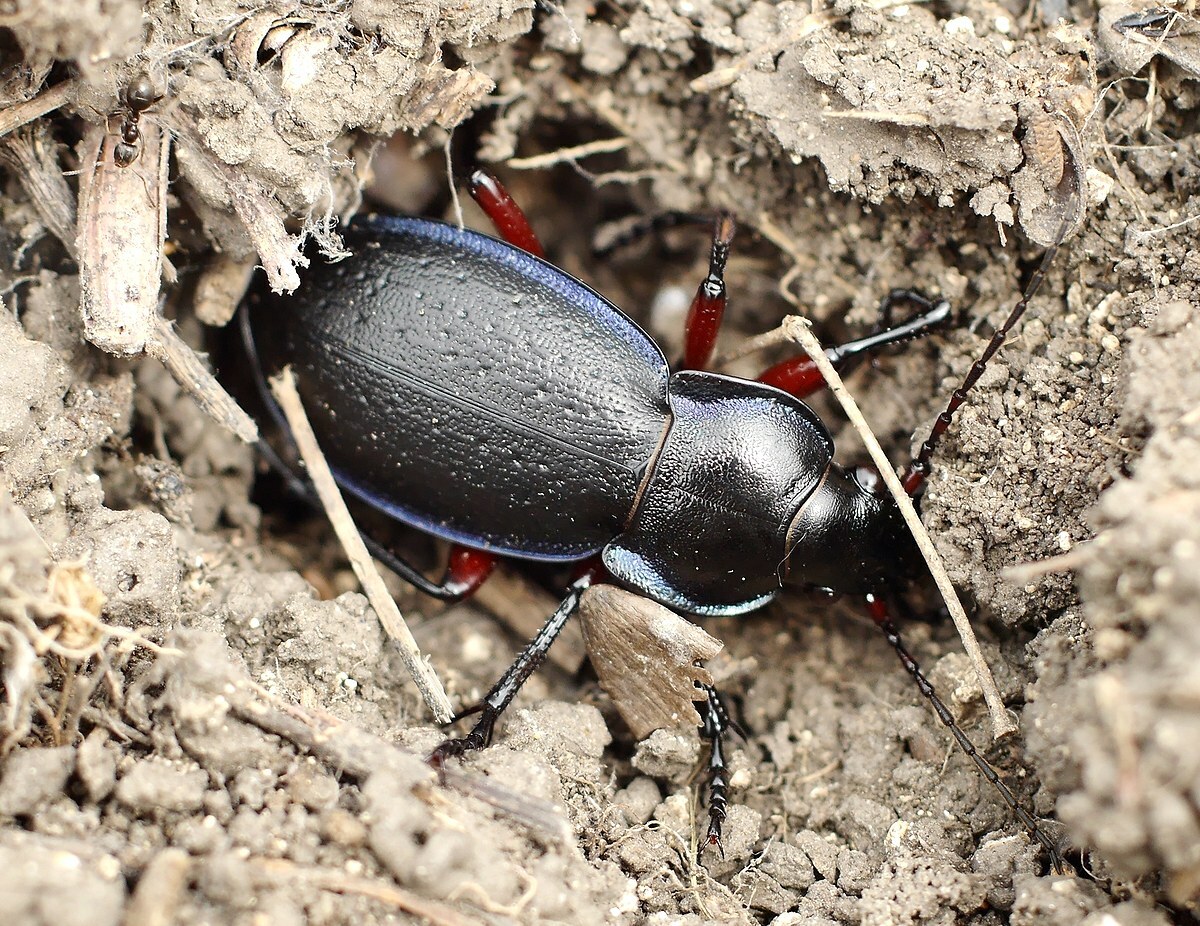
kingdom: Animalia
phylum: Arthropoda
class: Insecta
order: Coleoptera
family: Carabidae
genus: Carabus
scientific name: Carabus besseri
